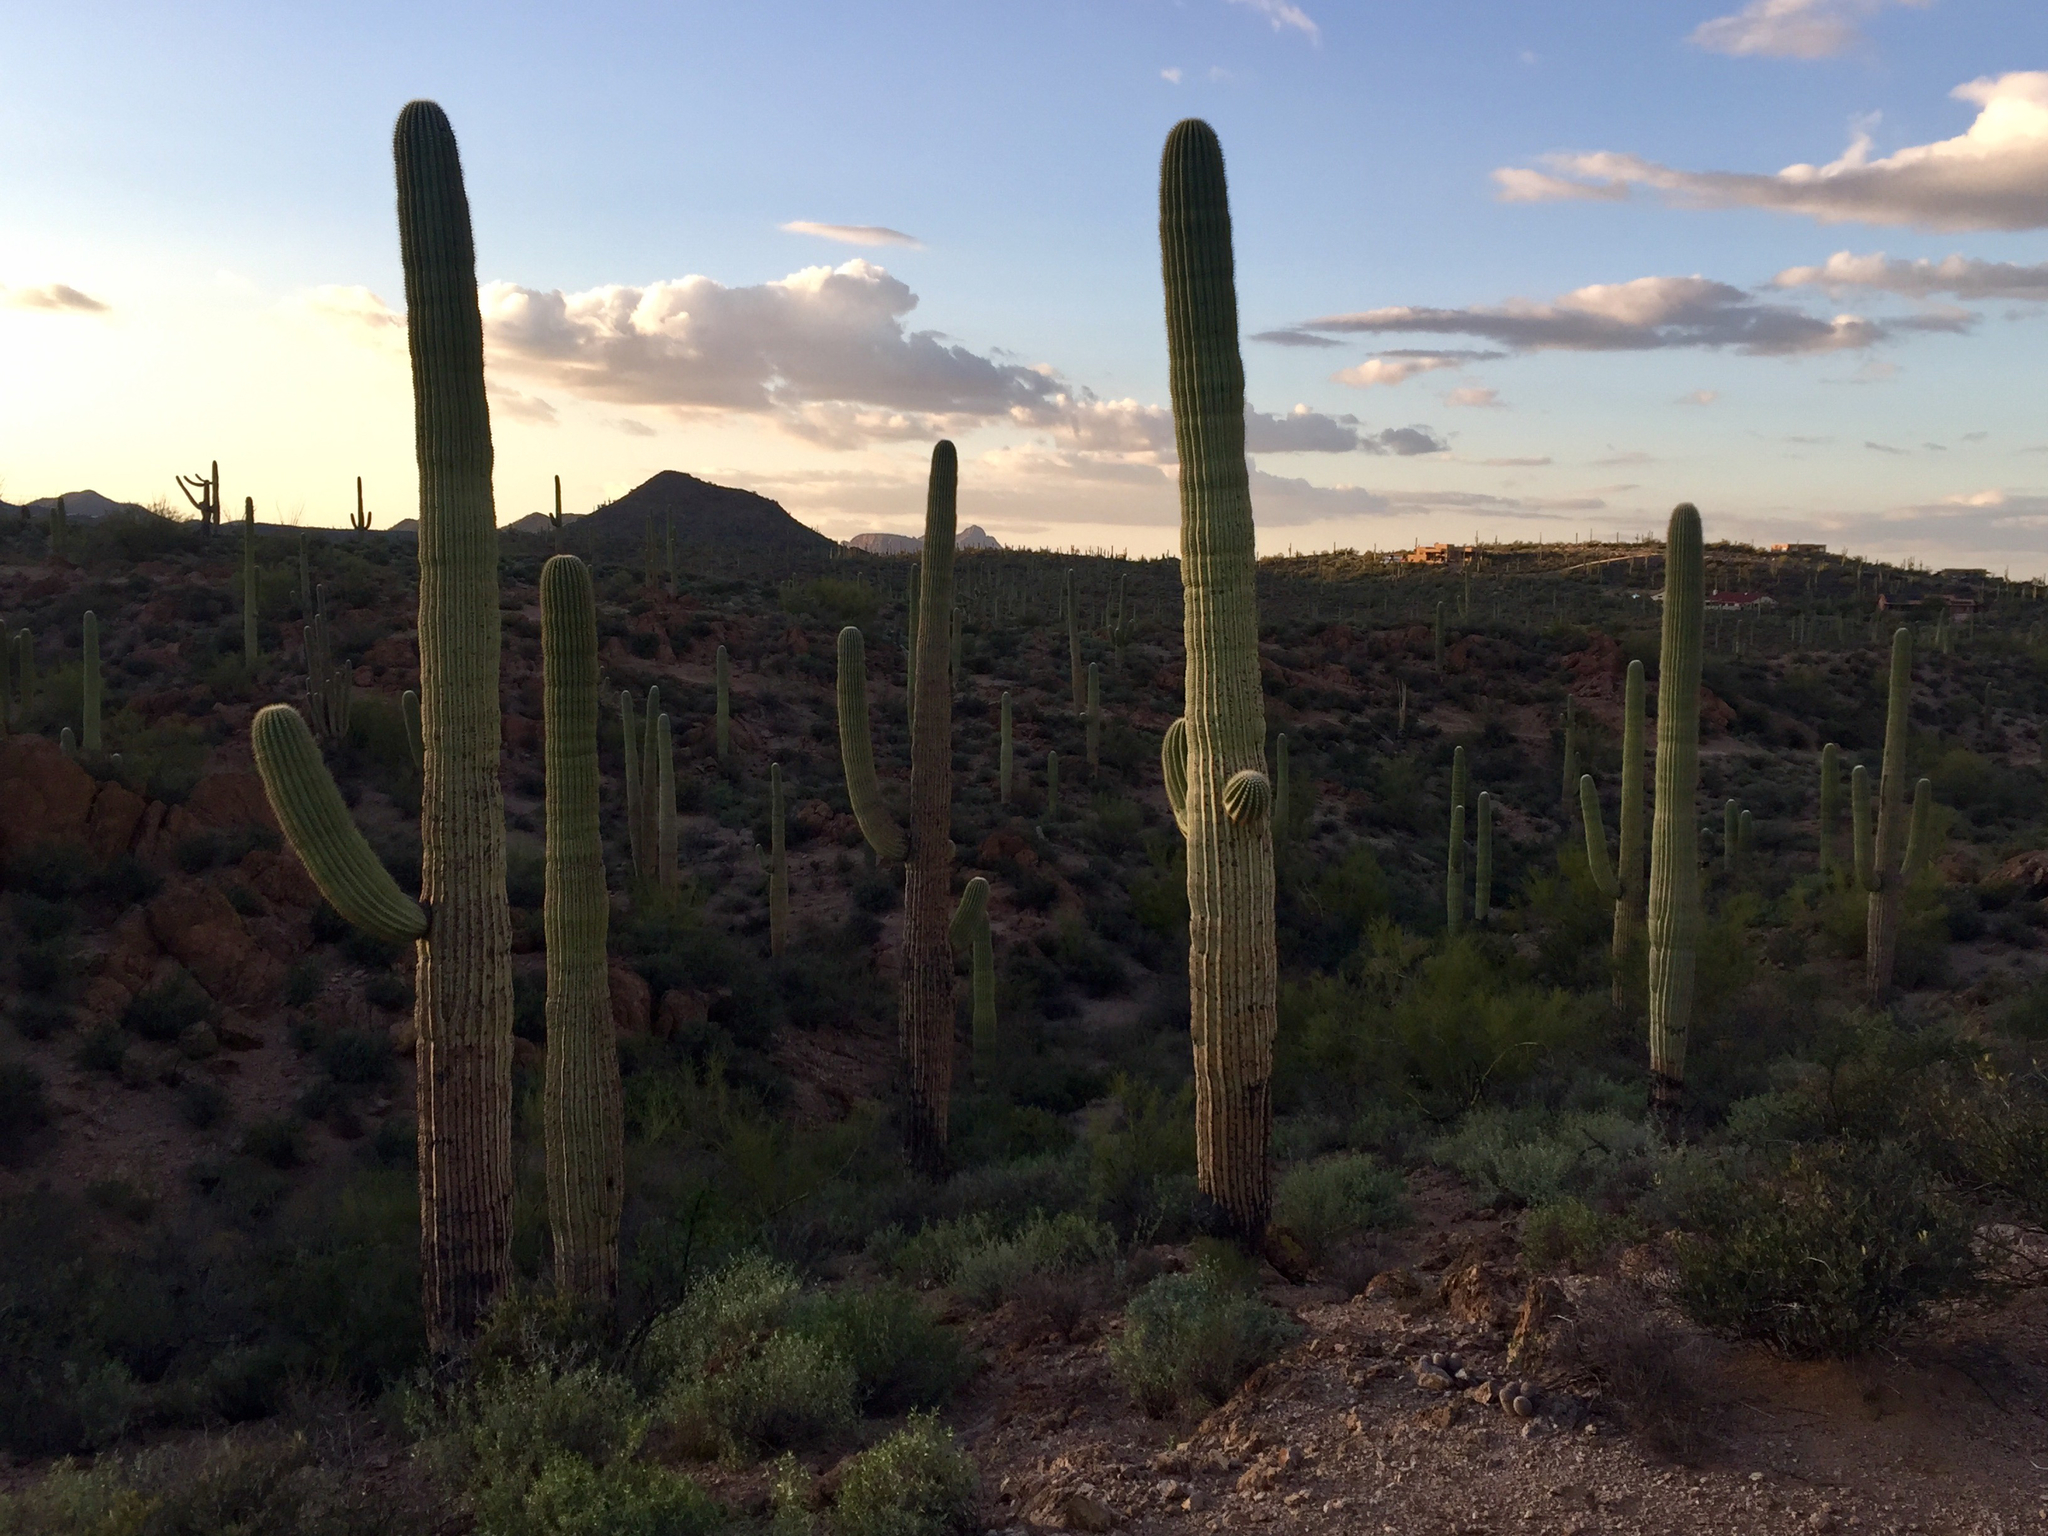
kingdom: Plantae
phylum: Tracheophyta
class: Magnoliopsida
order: Caryophyllales
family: Cactaceae
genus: Carnegiea
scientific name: Carnegiea gigantea
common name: Saguaro
